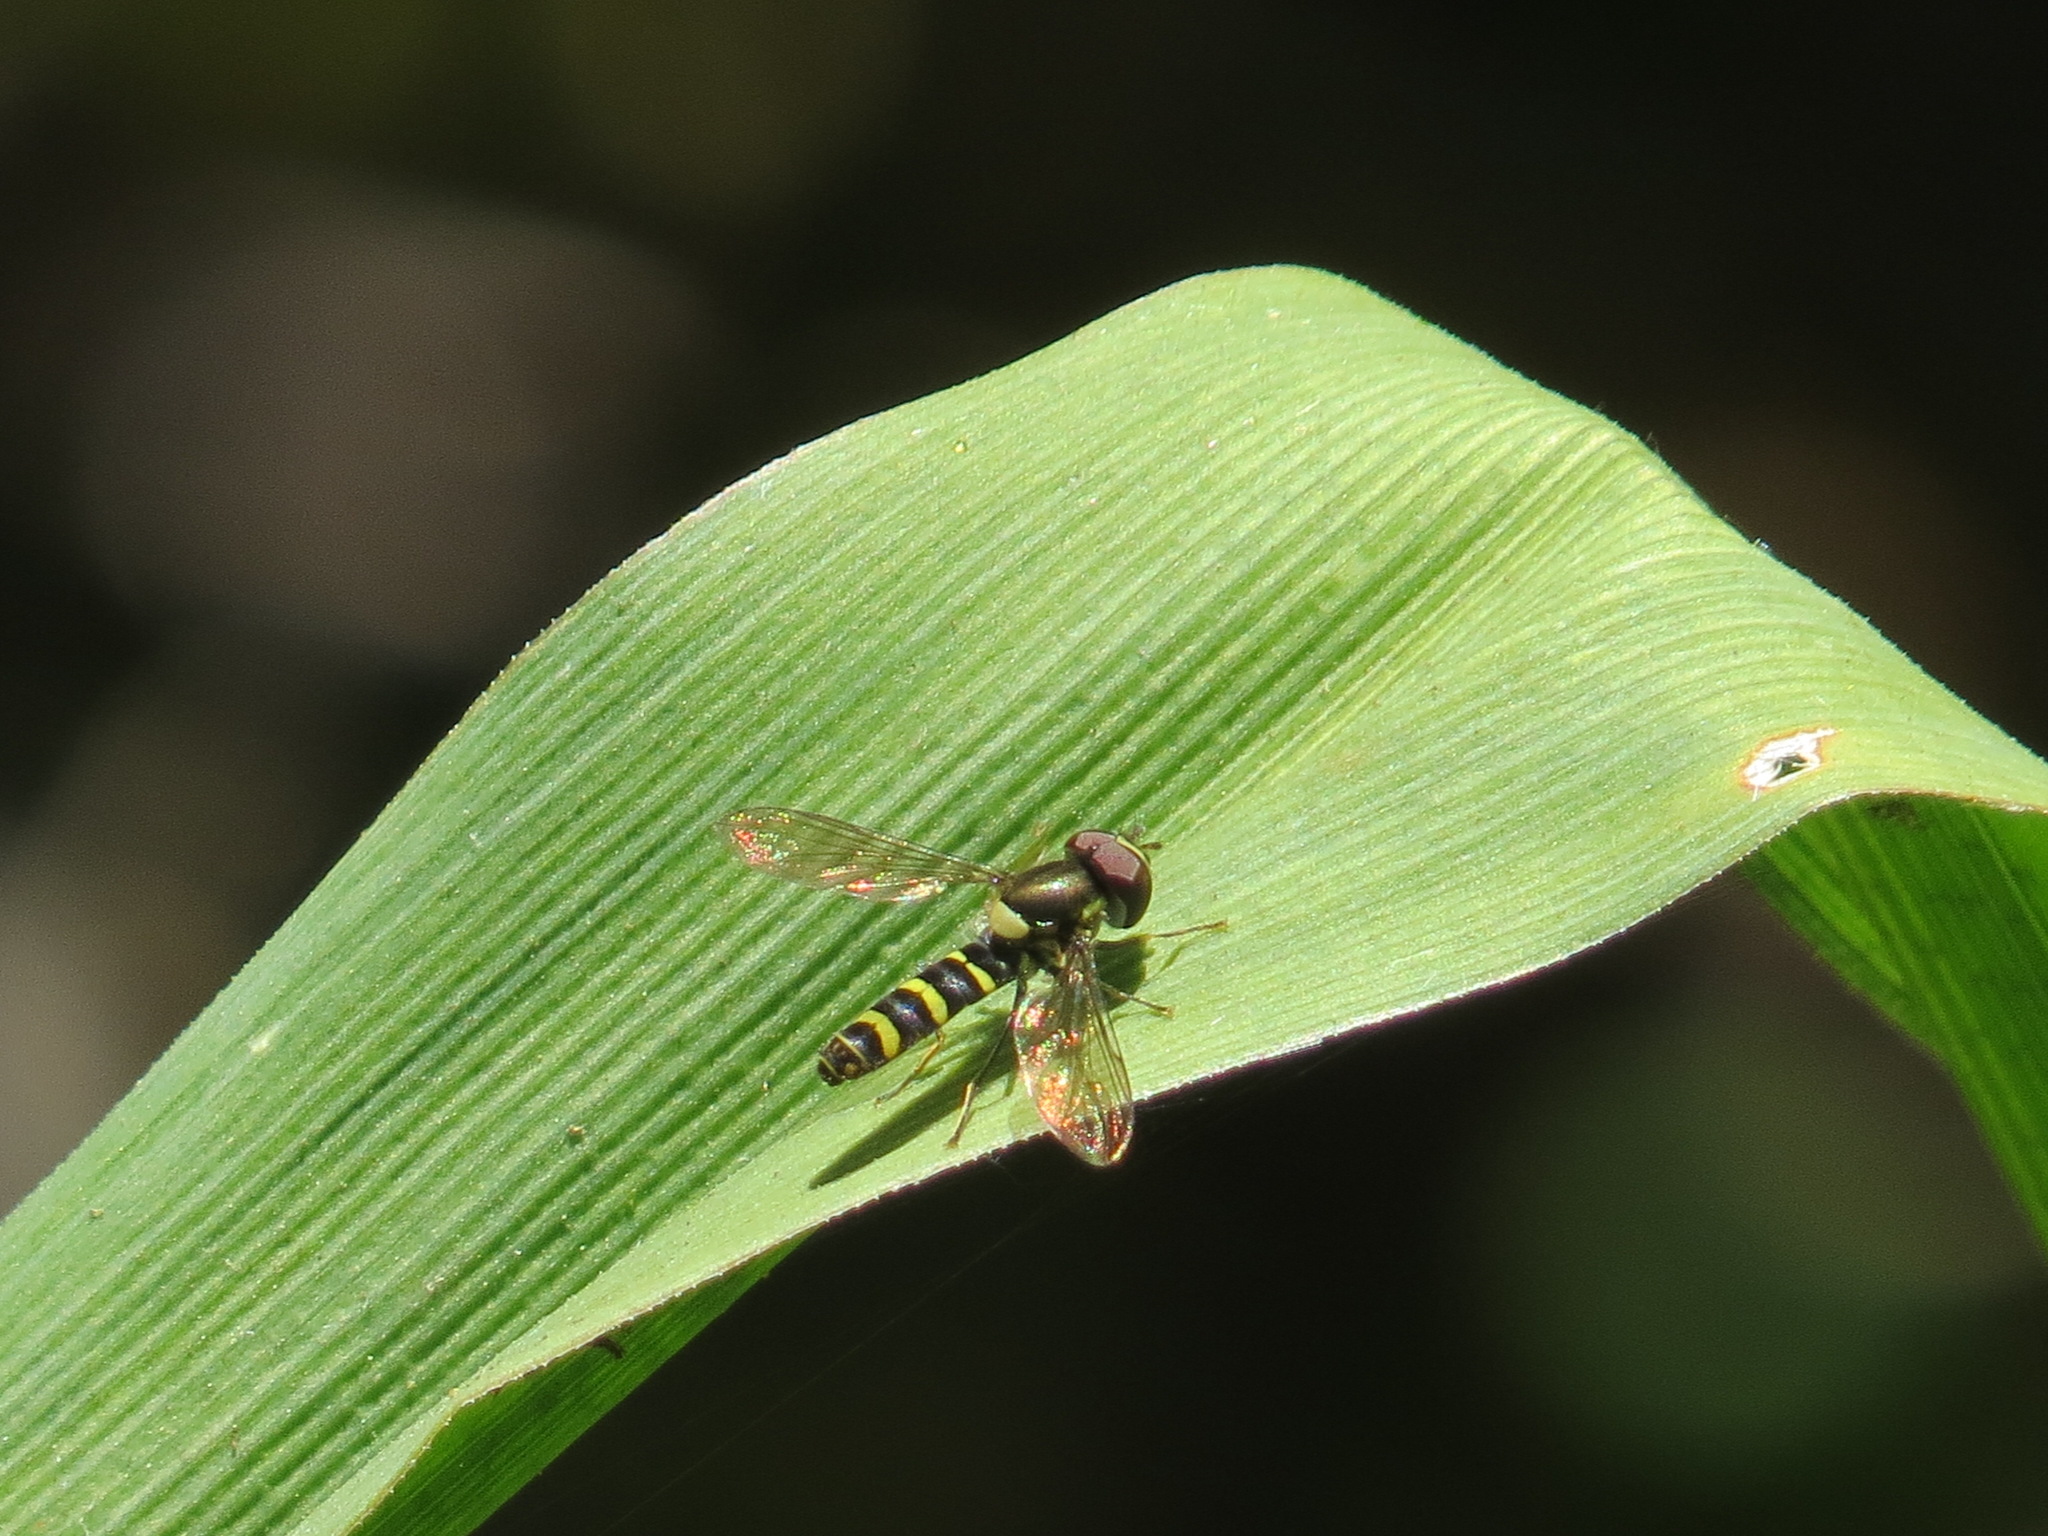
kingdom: Animalia
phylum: Arthropoda
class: Insecta
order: Diptera
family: Syrphidae
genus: Fazia
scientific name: Fazia micrura
